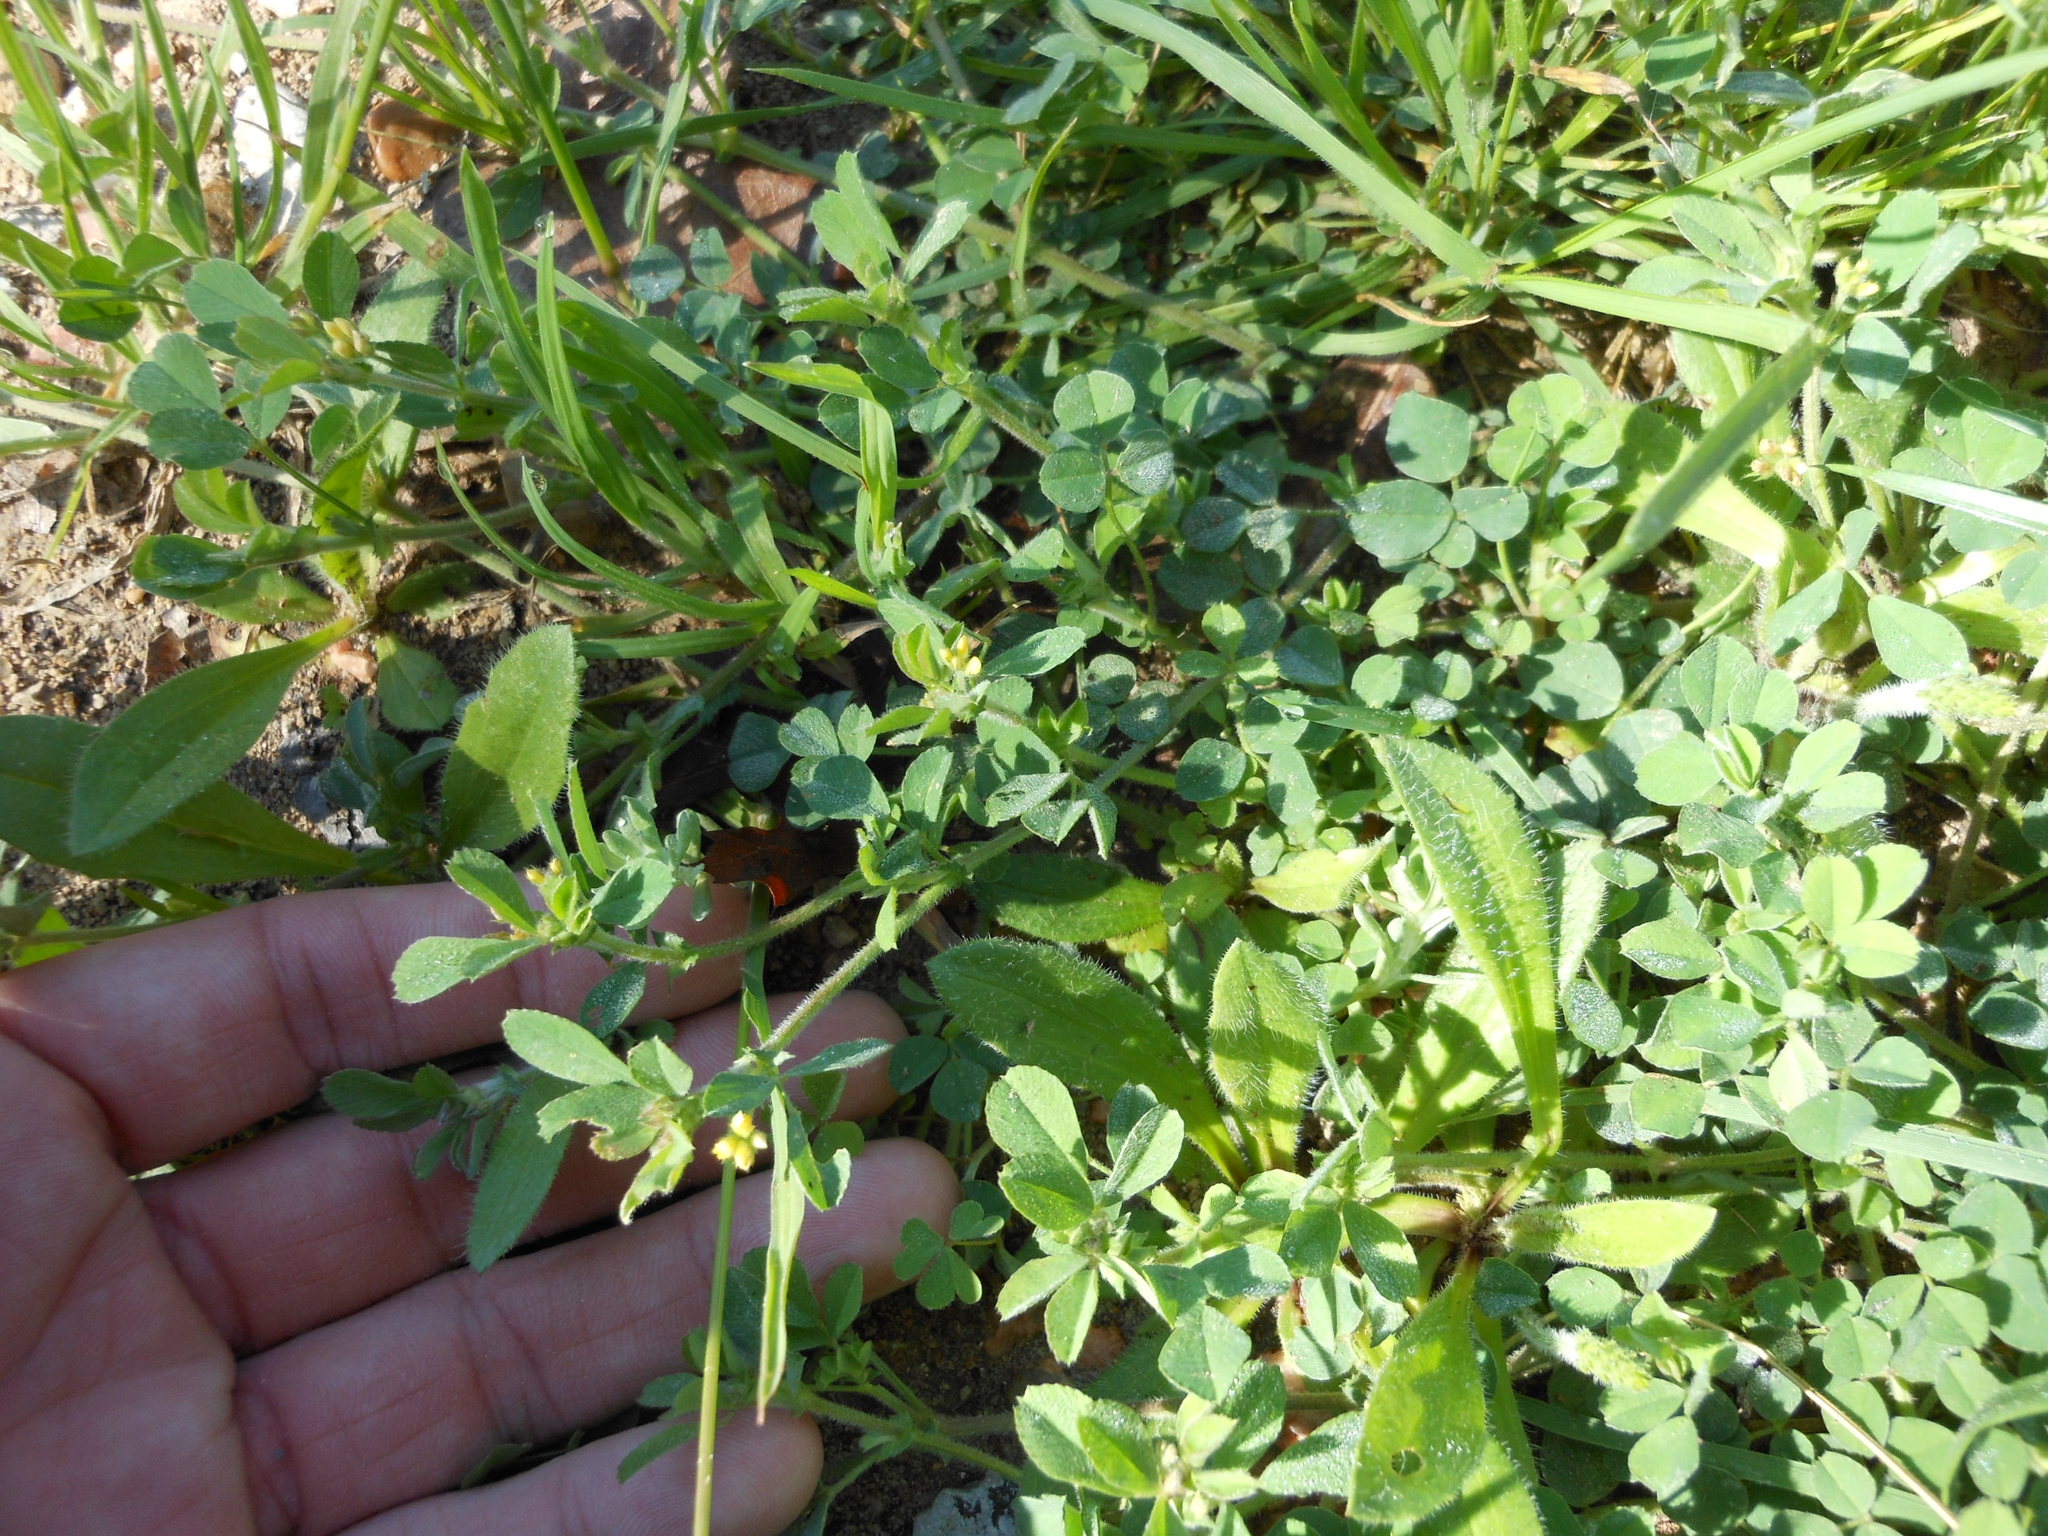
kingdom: Plantae
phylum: Tracheophyta
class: Magnoliopsida
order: Fabales
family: Fabaceae
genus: Medicago
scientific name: Medicago minima
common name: Little bur-clover
